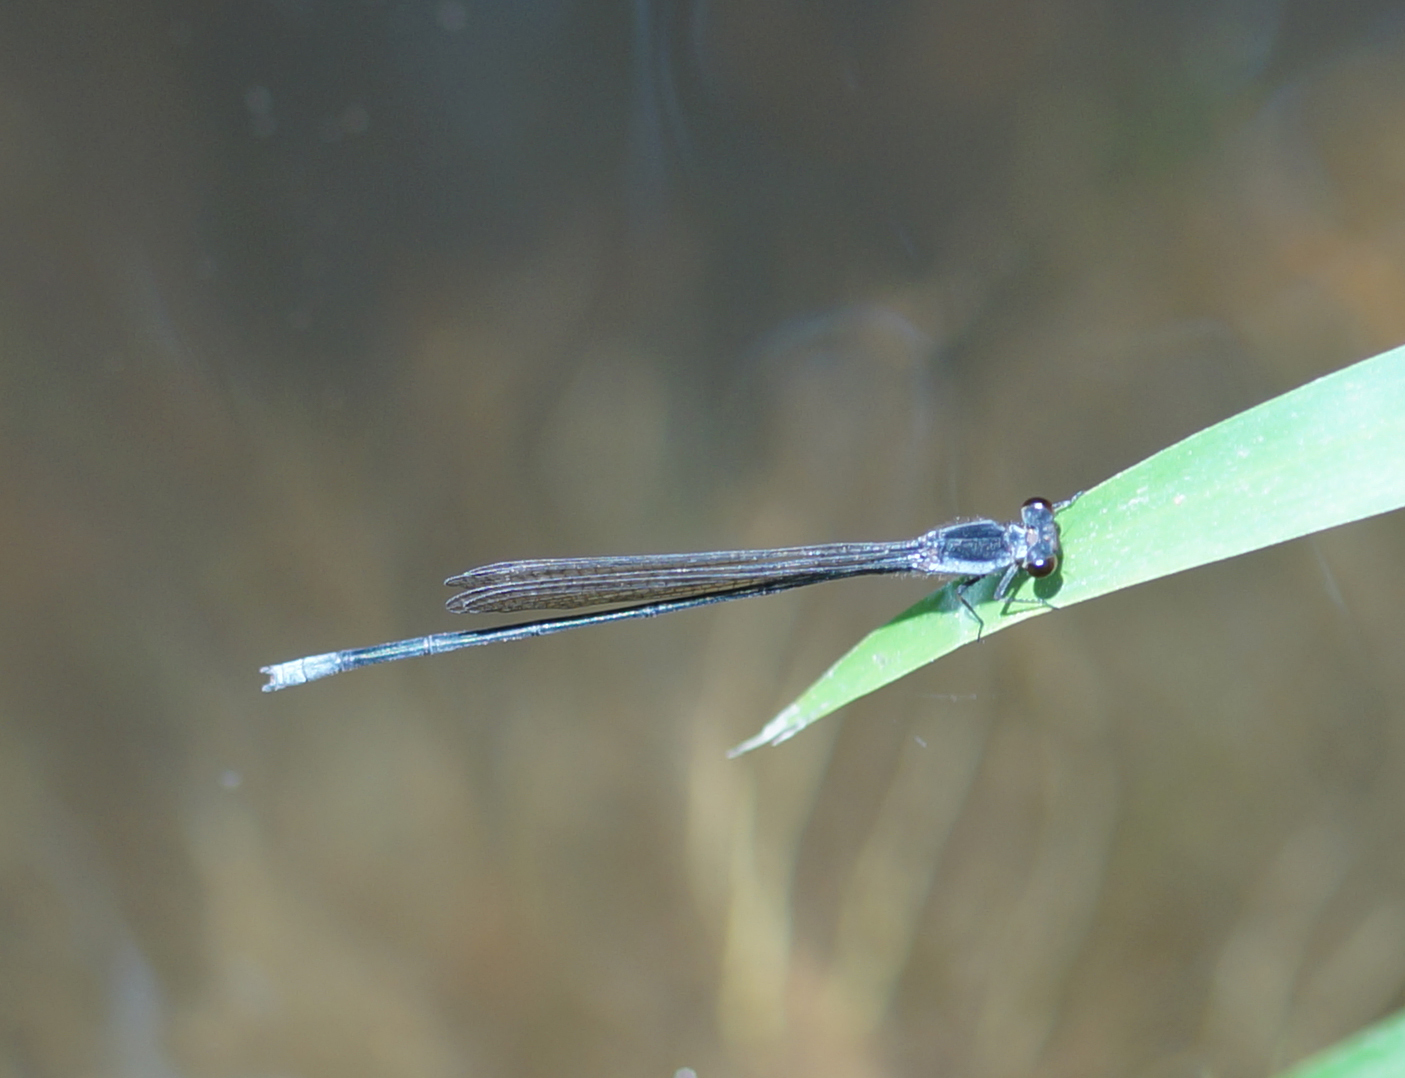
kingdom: Animalia
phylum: Arthropoda
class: Insecta
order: Odonata
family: Coenagrionidae
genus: Pseudagrion
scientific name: Pseudagrion pruinosum
